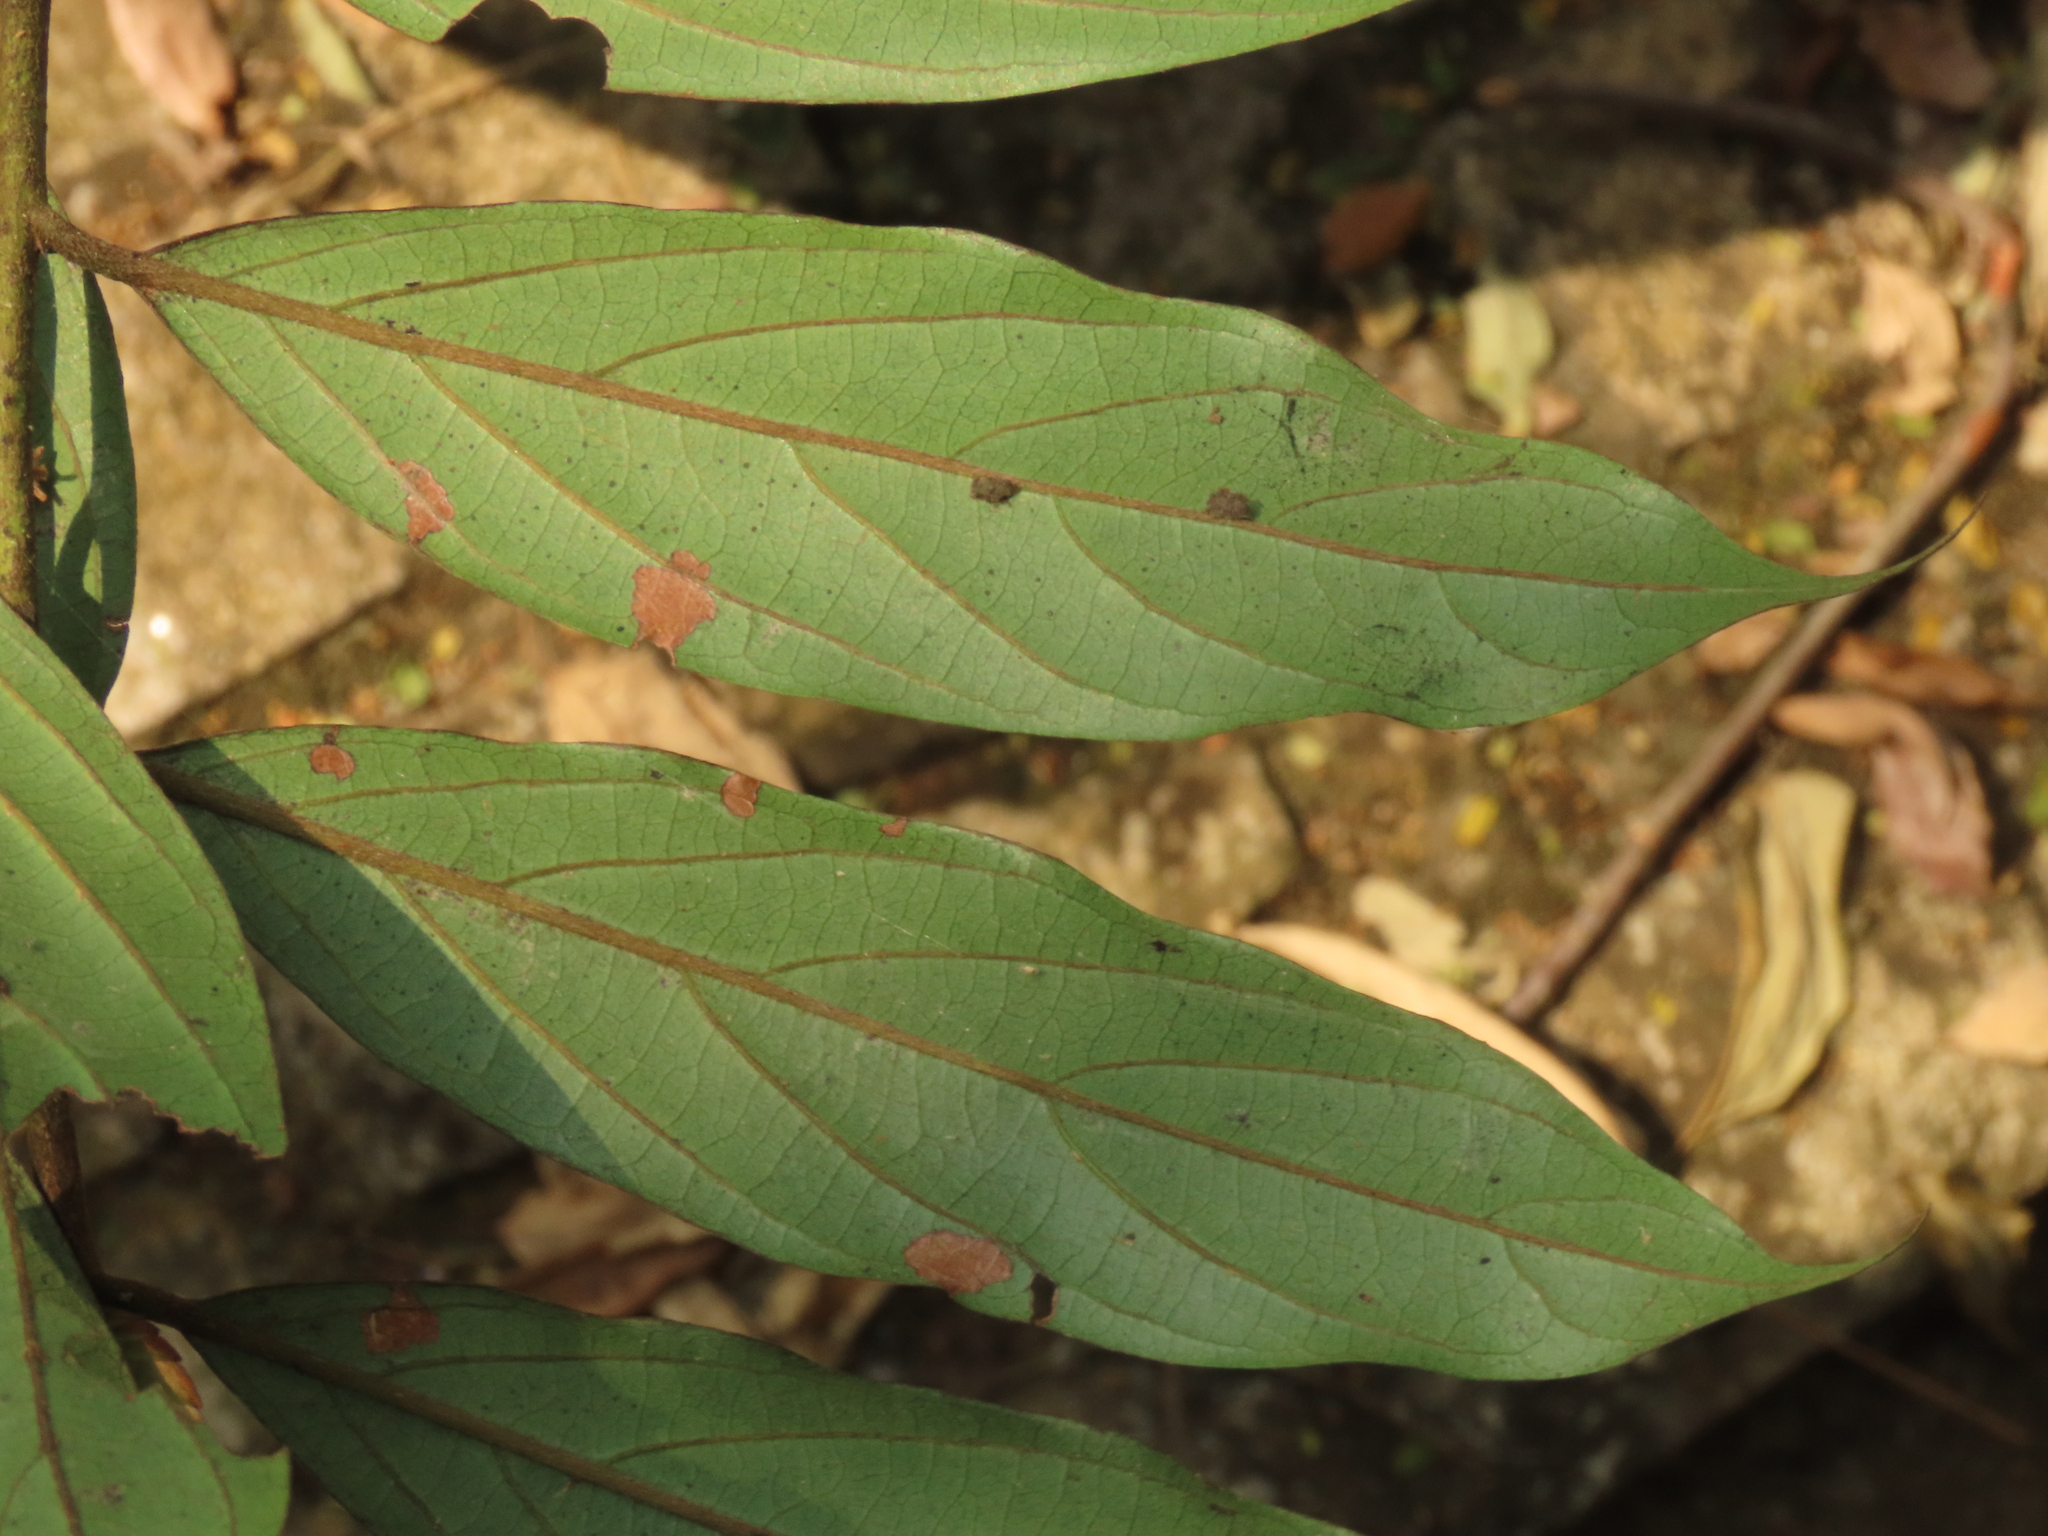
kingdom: Plantae
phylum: Tracheophyta
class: Magnoliopsida
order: Ericales
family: Ebenaceae
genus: Diospyros
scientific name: Diospyros eriantha
